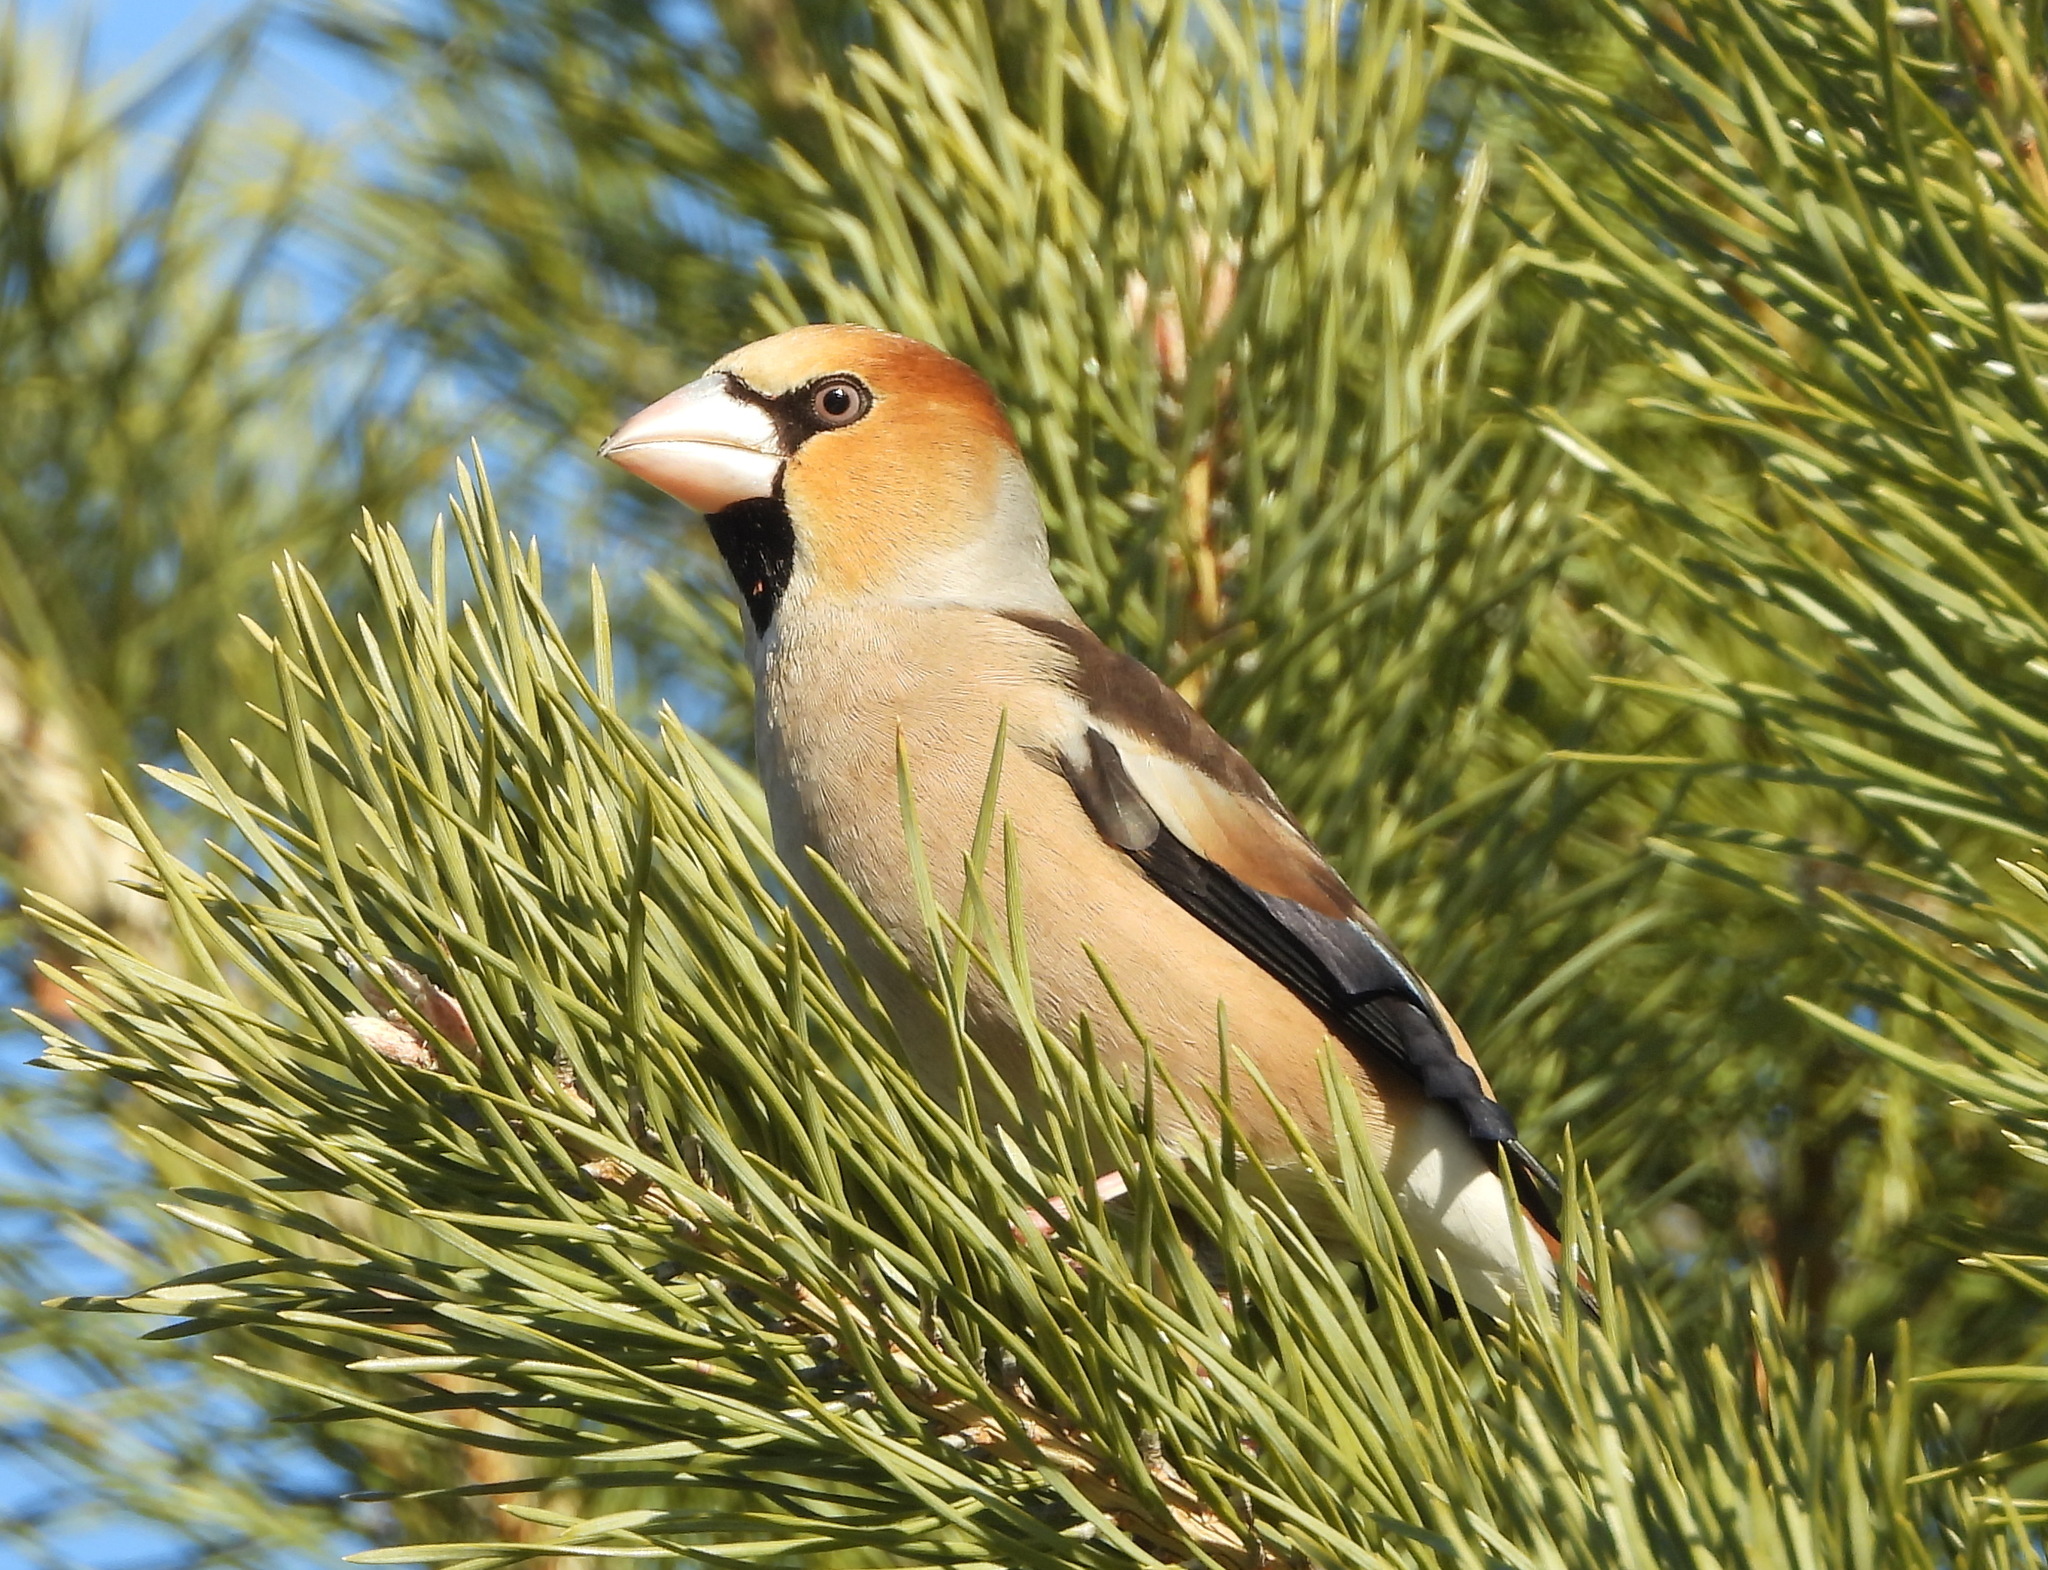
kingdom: Animalia
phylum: Chordata
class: Aves
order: Passeriformes
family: Fringillidae
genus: Coccothraustes
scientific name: Coccothraustes coccothraustes
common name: Hawfinch
